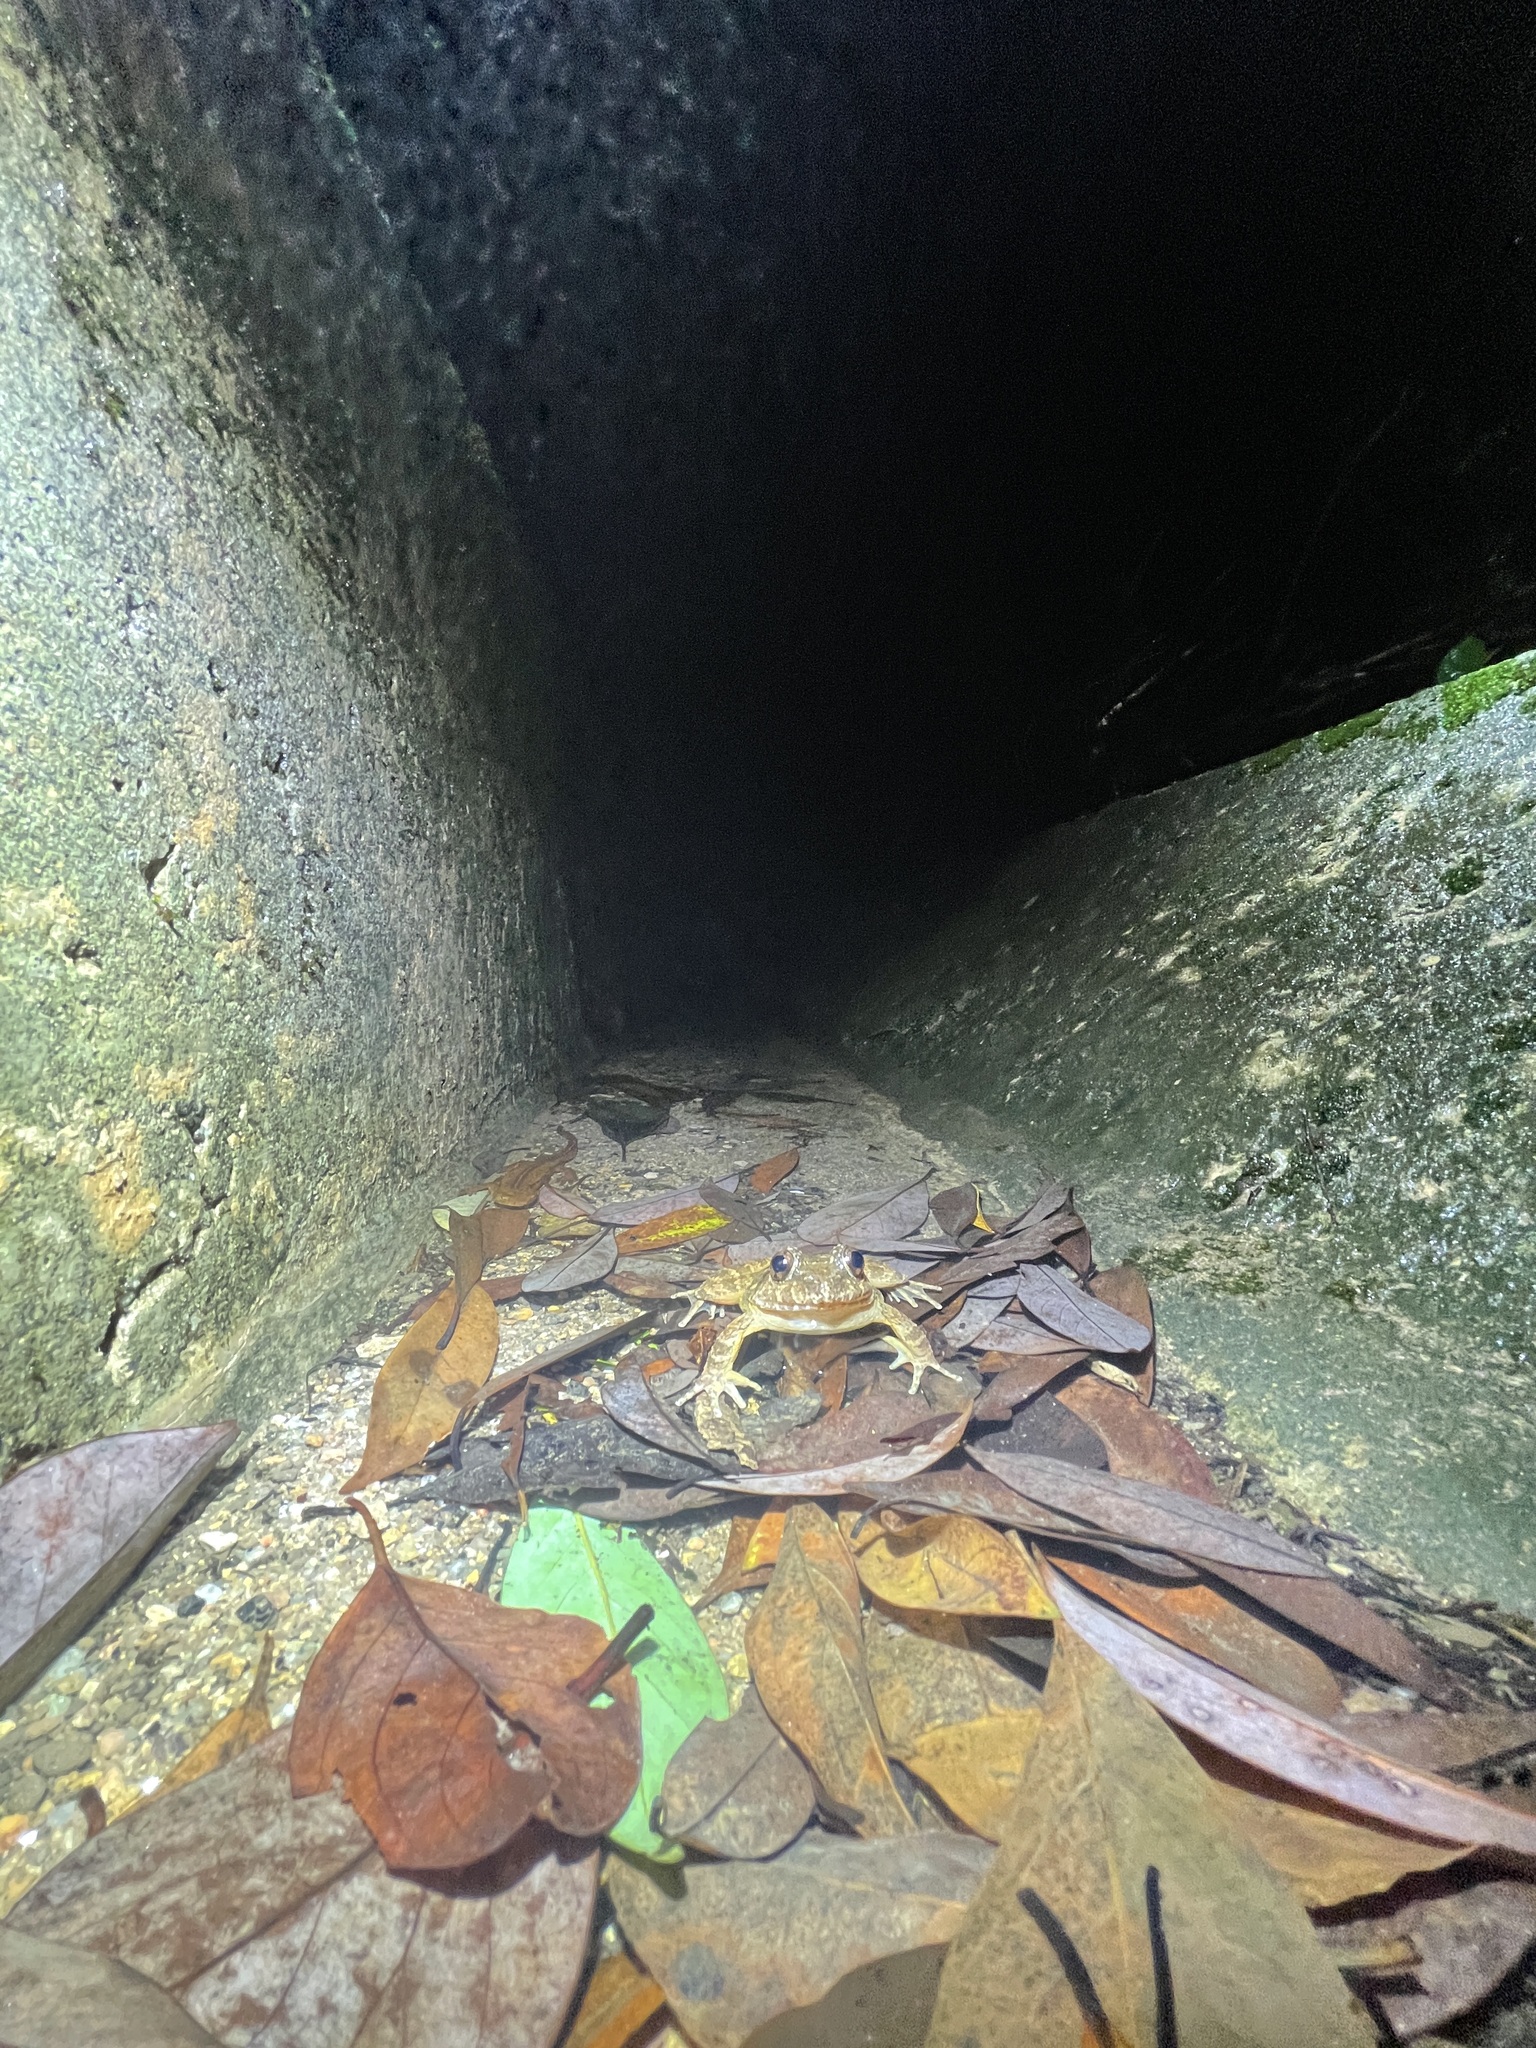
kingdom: Animalia
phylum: Chordata
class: Amphibia
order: Anura
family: Dicroglossidae
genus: Quasipaa
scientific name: Quasipaa exilispinosa
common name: Hong kong paa frog
